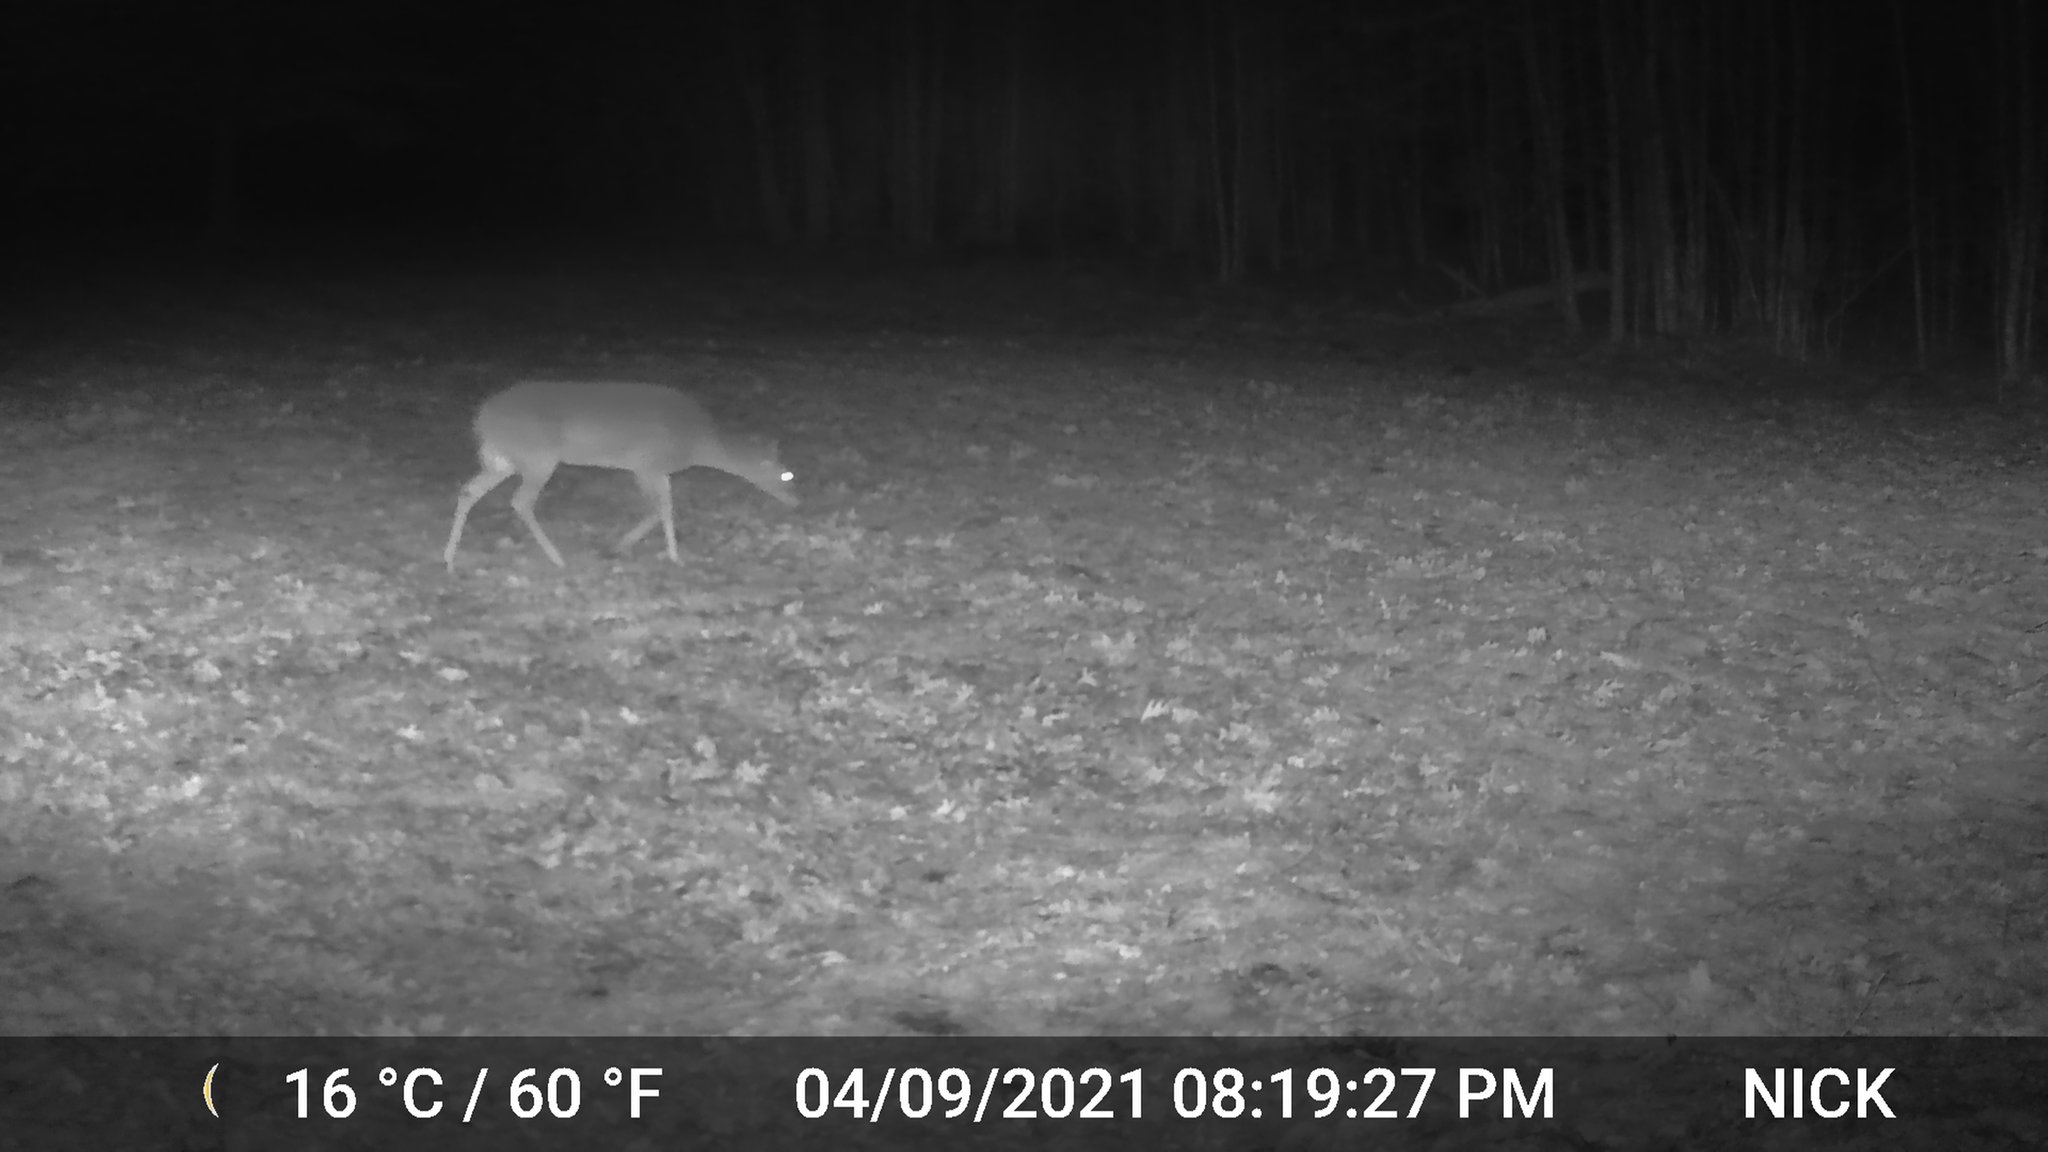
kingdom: Animalia
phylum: Chordata
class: Mammalia
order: Artiodactyla
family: Cervidae
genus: Odocoileus
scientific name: Odocoileus virginianus
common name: White-tailed deer
